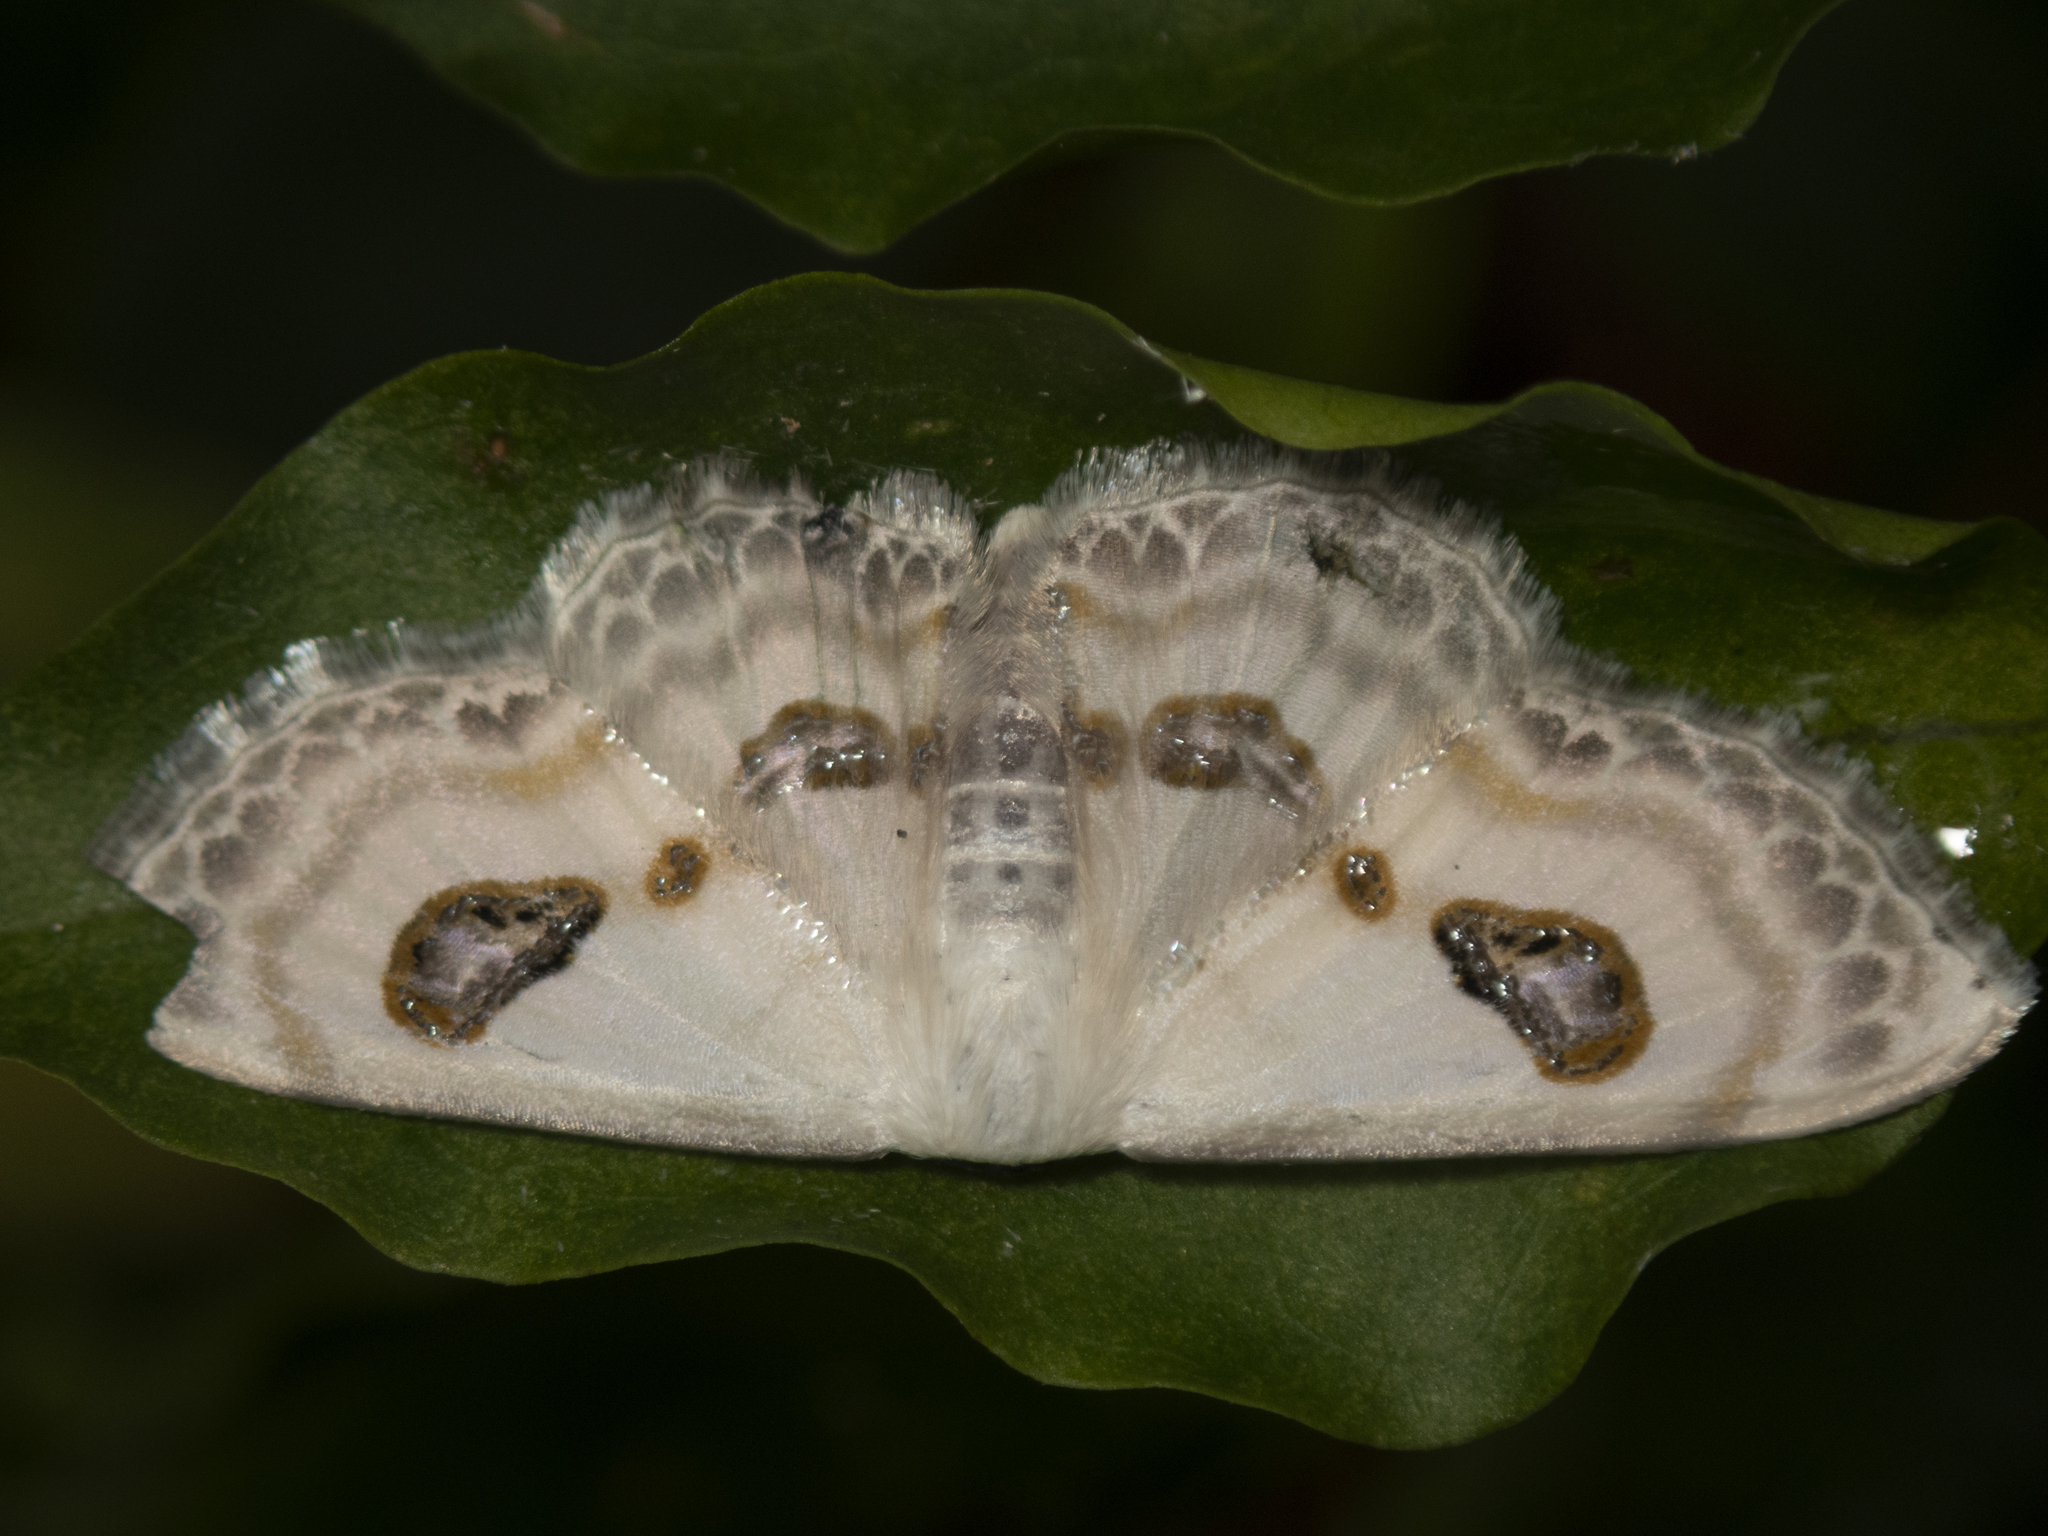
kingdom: Animalia
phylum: Arthropoda
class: Insecta
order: Lepidoptera
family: Geometridae
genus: Problepsis
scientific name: Problepsis vulgaris
